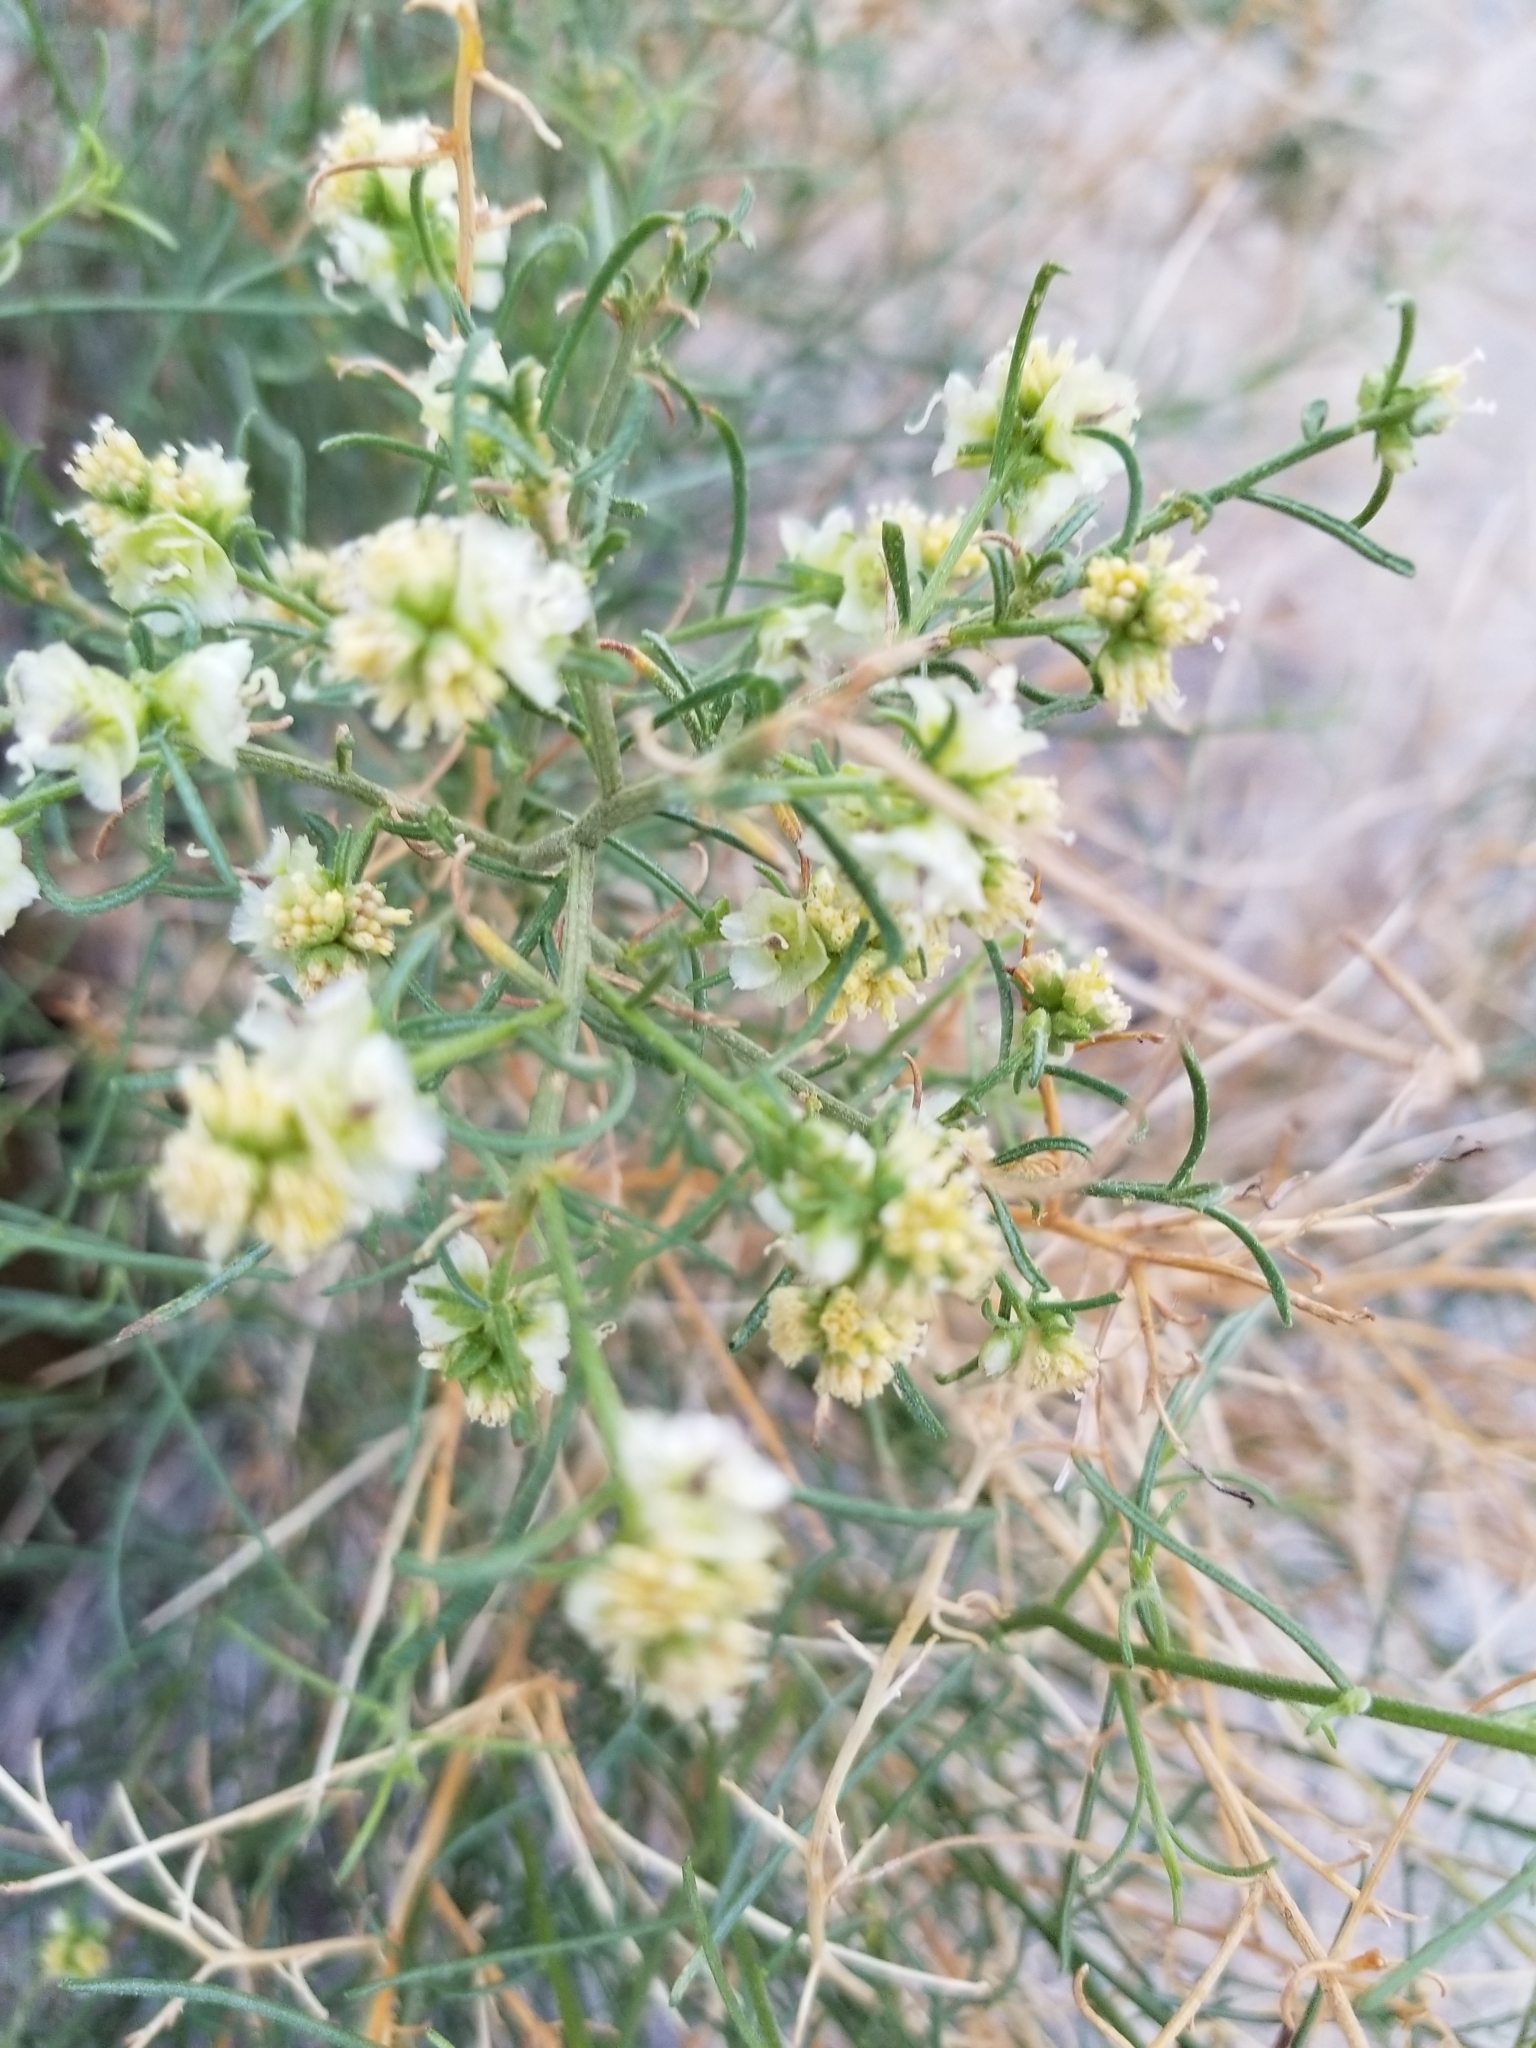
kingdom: Plantae
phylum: Tracheophyta
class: Magnoliopsida
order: Asterales
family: Asteraceae
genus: Ambrosia
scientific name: Ambrosia salsola
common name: Burrobrush
